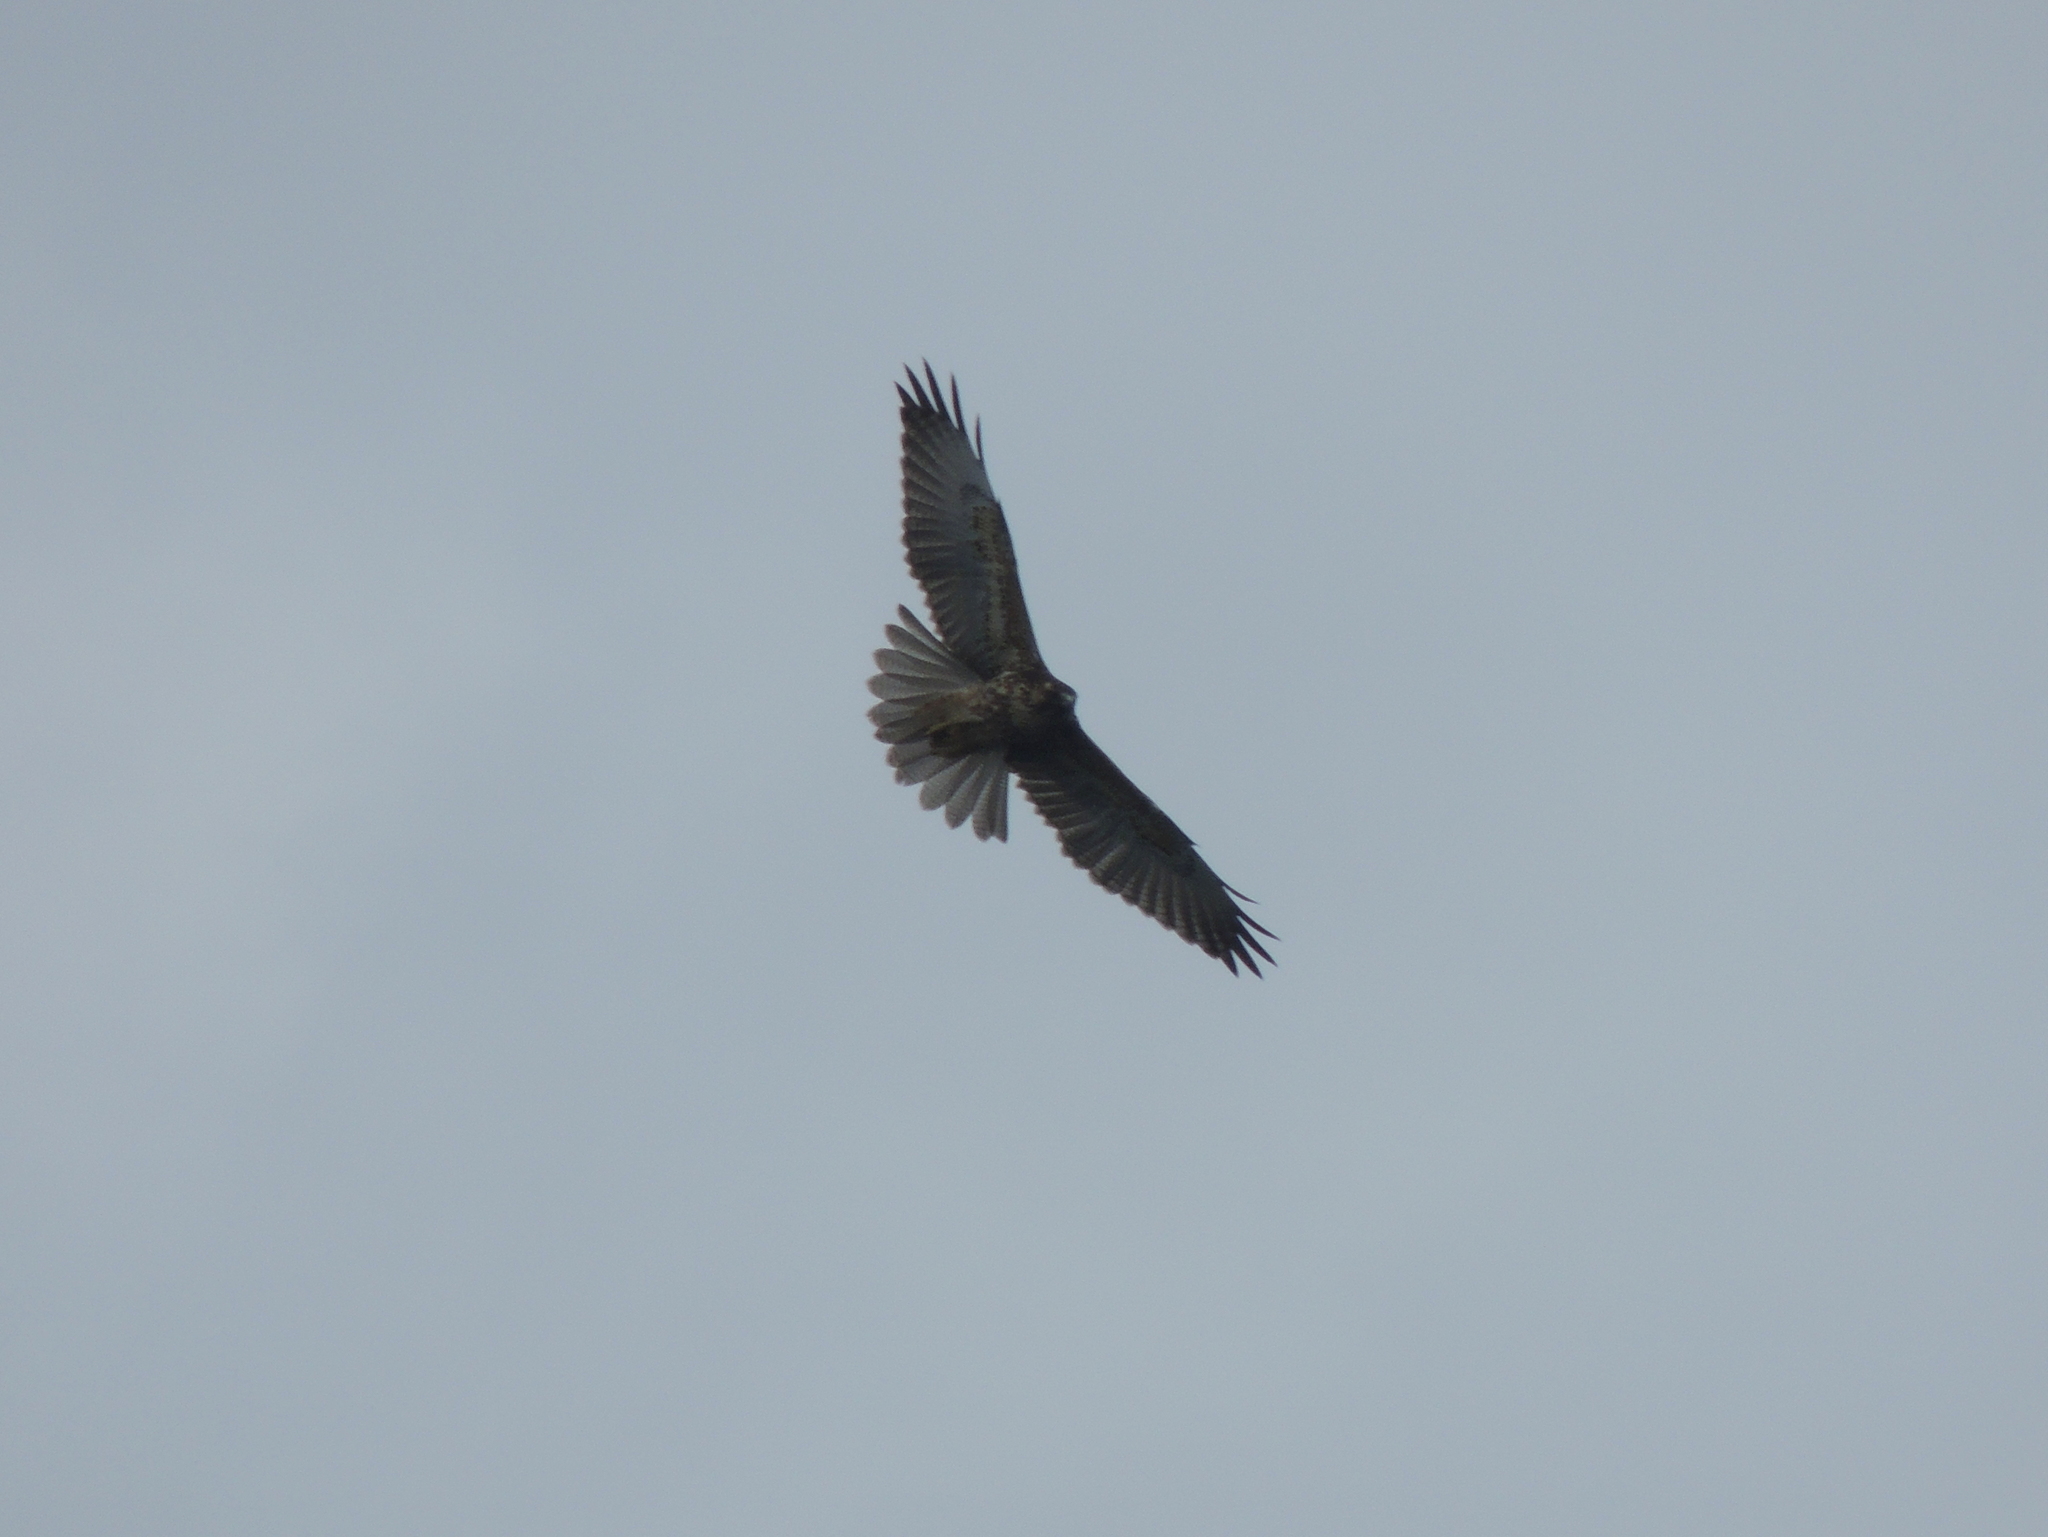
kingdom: Animalia
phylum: Chordata
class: Aves
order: Accipitriformes
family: Accipitridae
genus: Buteo
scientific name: Buteo albicaudatus
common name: White-tailed hawk
